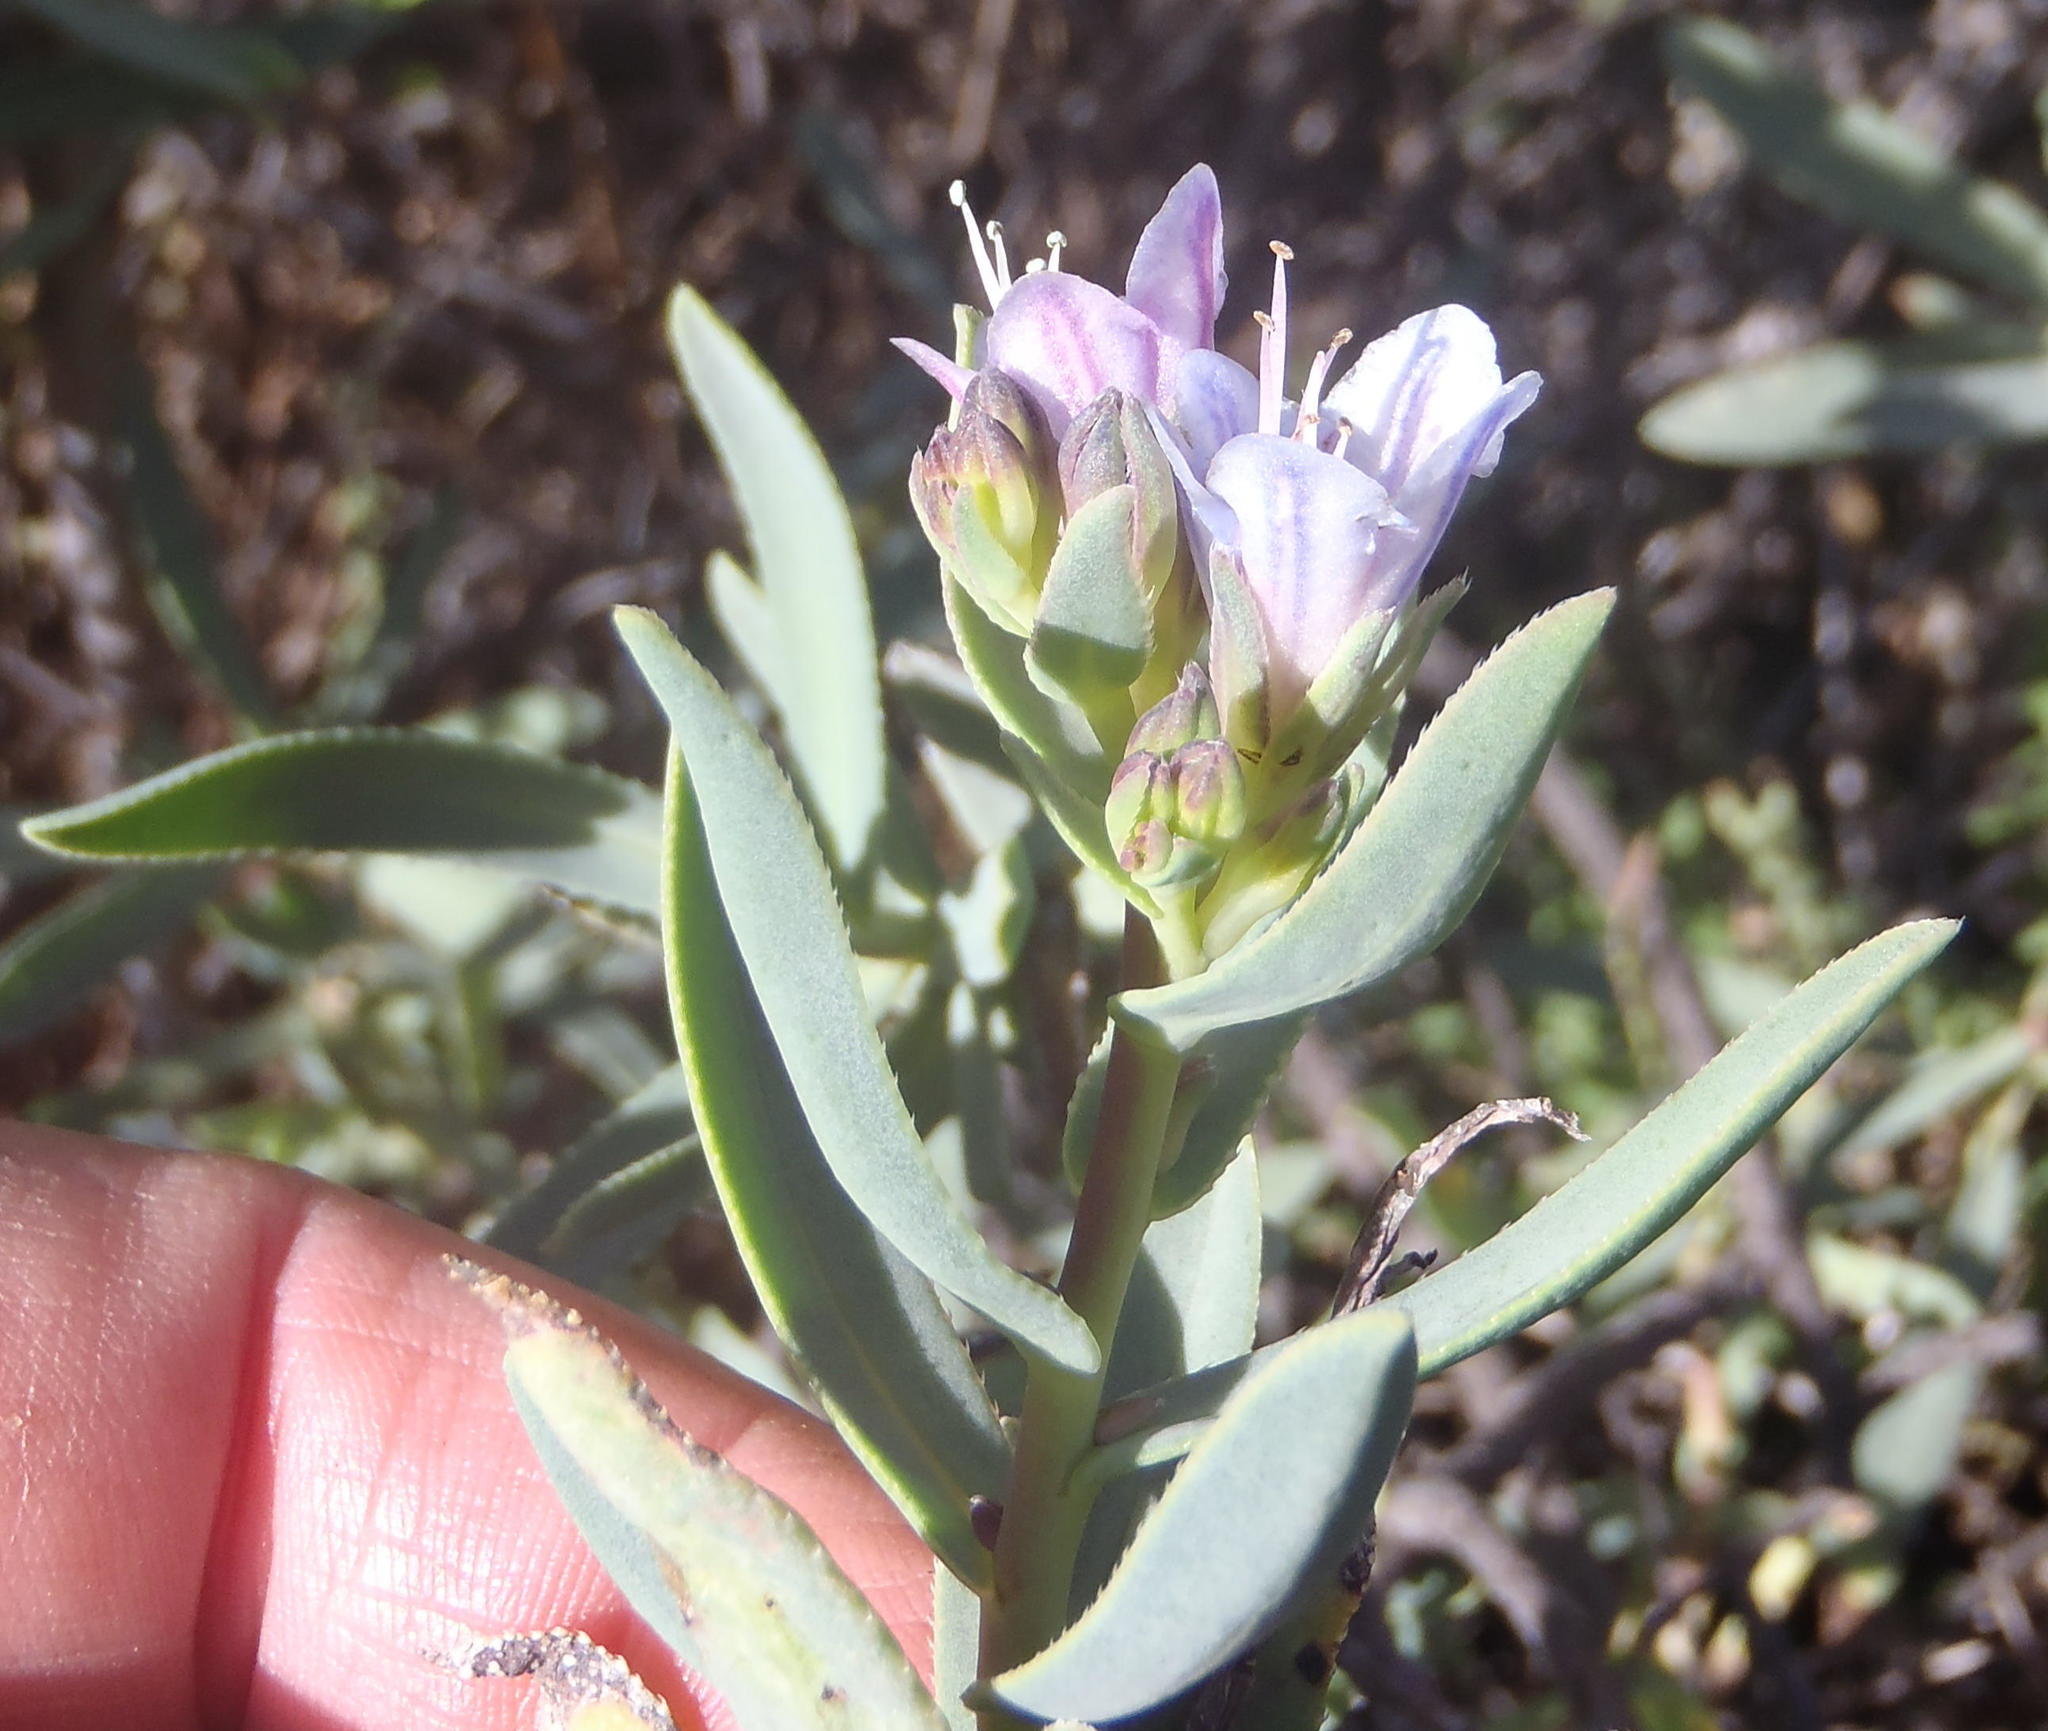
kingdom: Plantae
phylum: Tracheophyta
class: Magnoliopsida
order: Boraginales
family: Boraginaceae
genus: Lobostemon
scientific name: Lobostemon glaucophyllus
